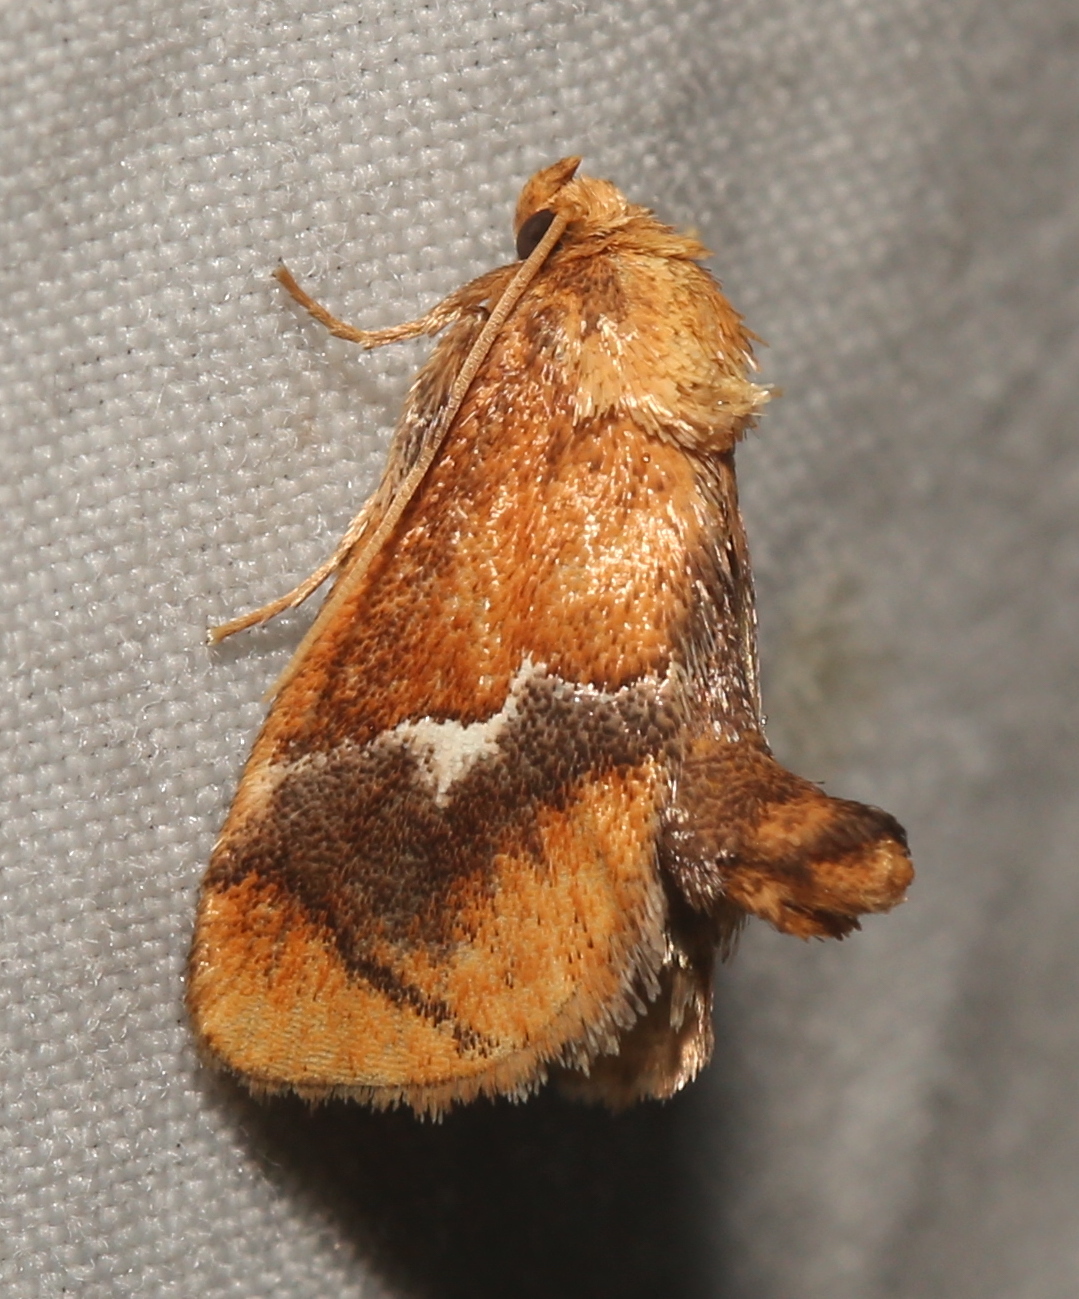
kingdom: Animalia
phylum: Arthropoda
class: Insecta
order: Lepidoptera
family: Limacodidae
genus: Lithacodes
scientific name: Lithacodes fasciola
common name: Yellow-shouldered slug moth
